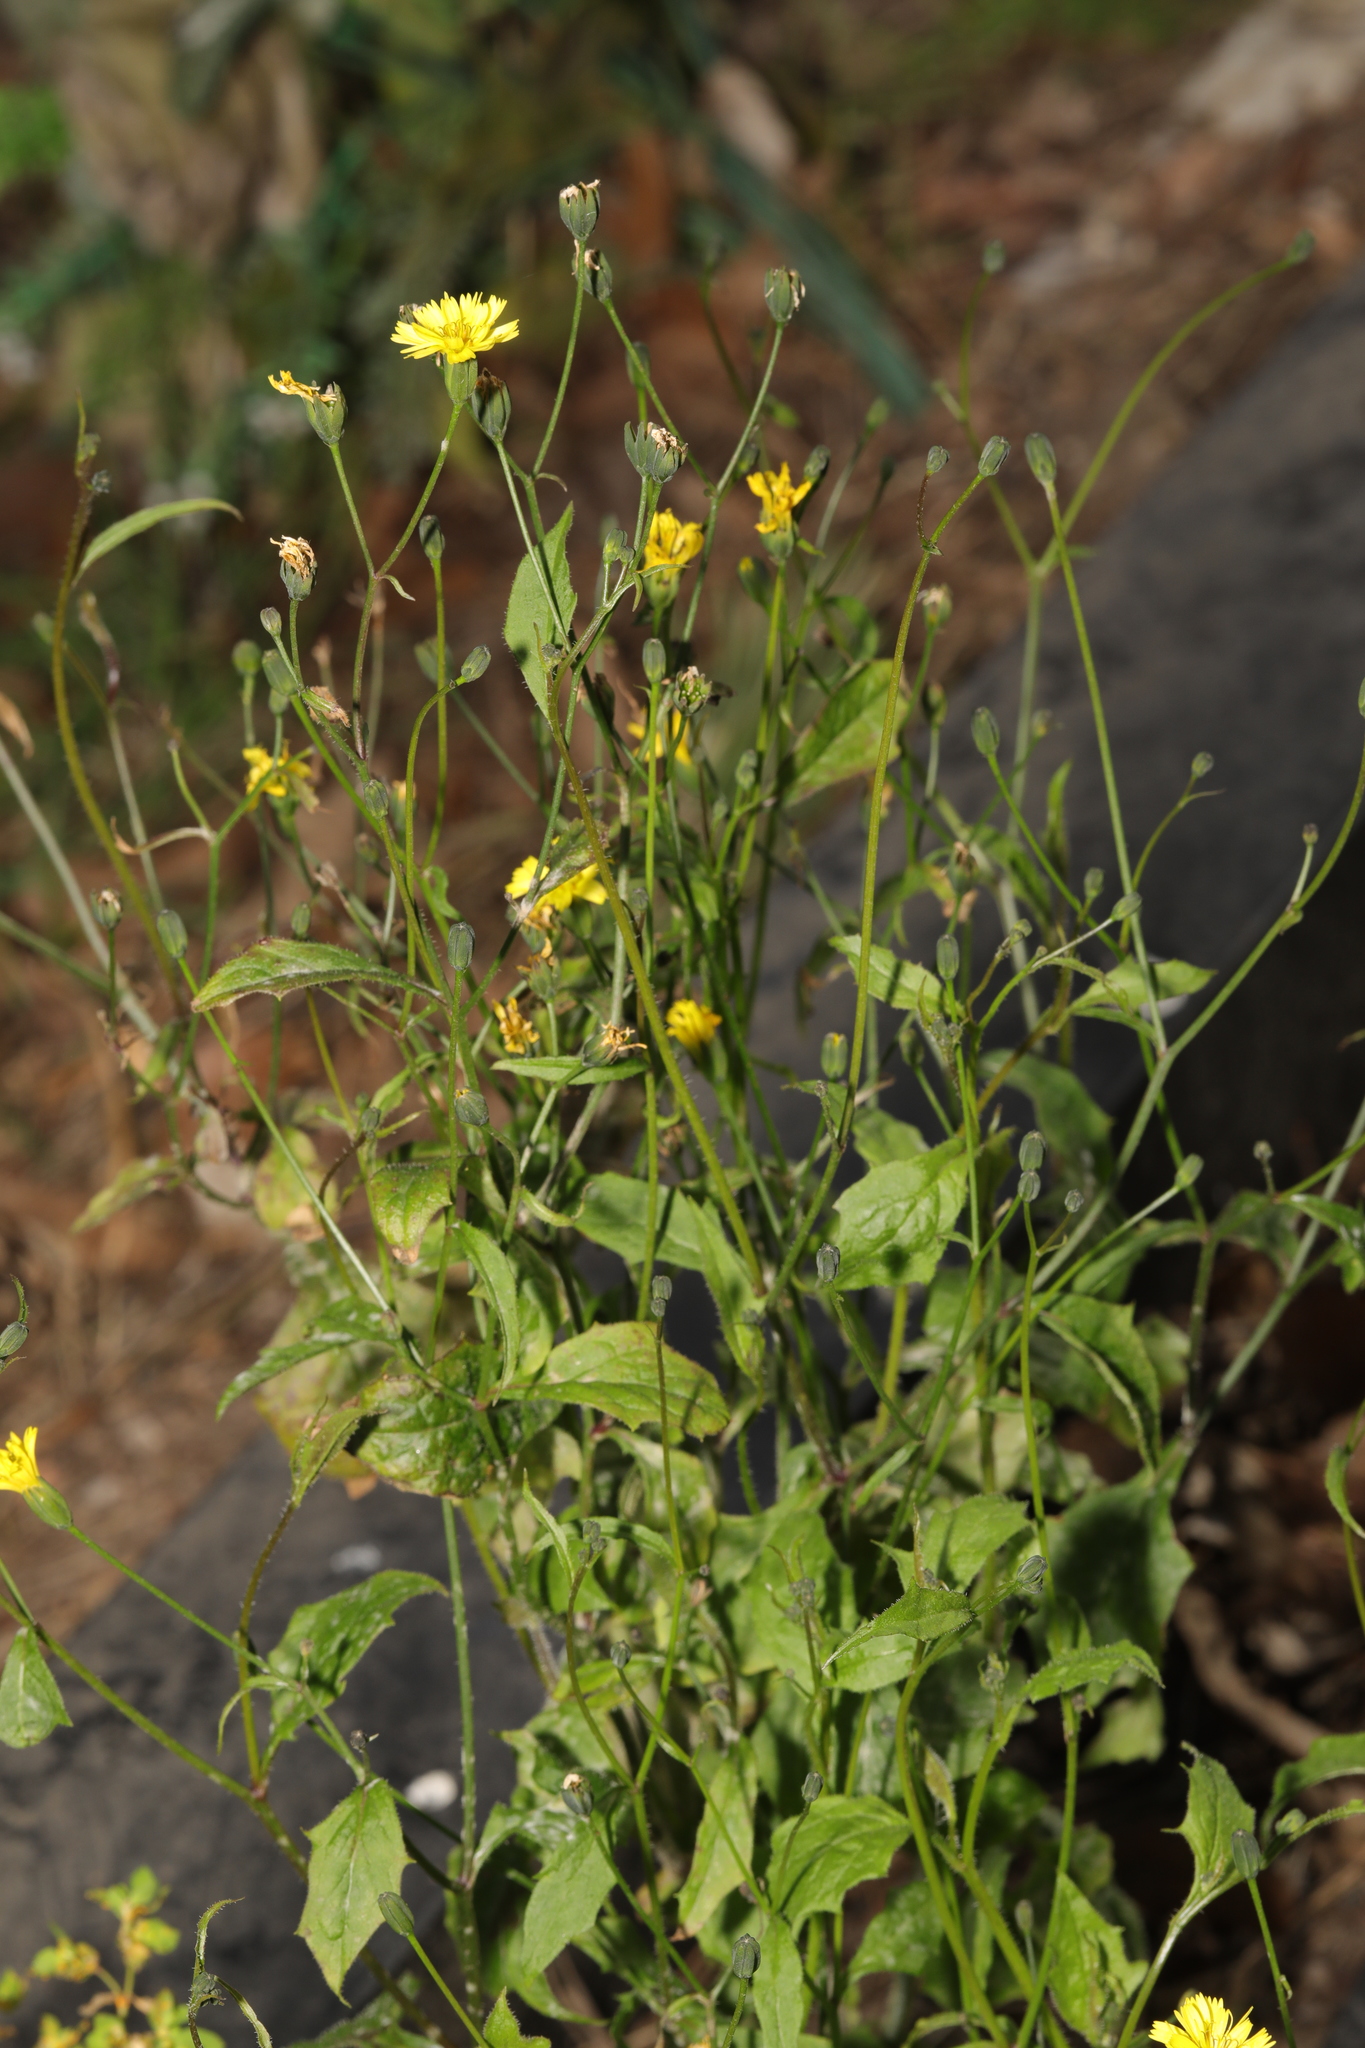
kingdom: Plantae
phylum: Tracheophyta
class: Magnoliopsida
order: Asterales
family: Asteraceae
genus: Lapsana
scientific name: Lapsana communis
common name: Nipplewort
